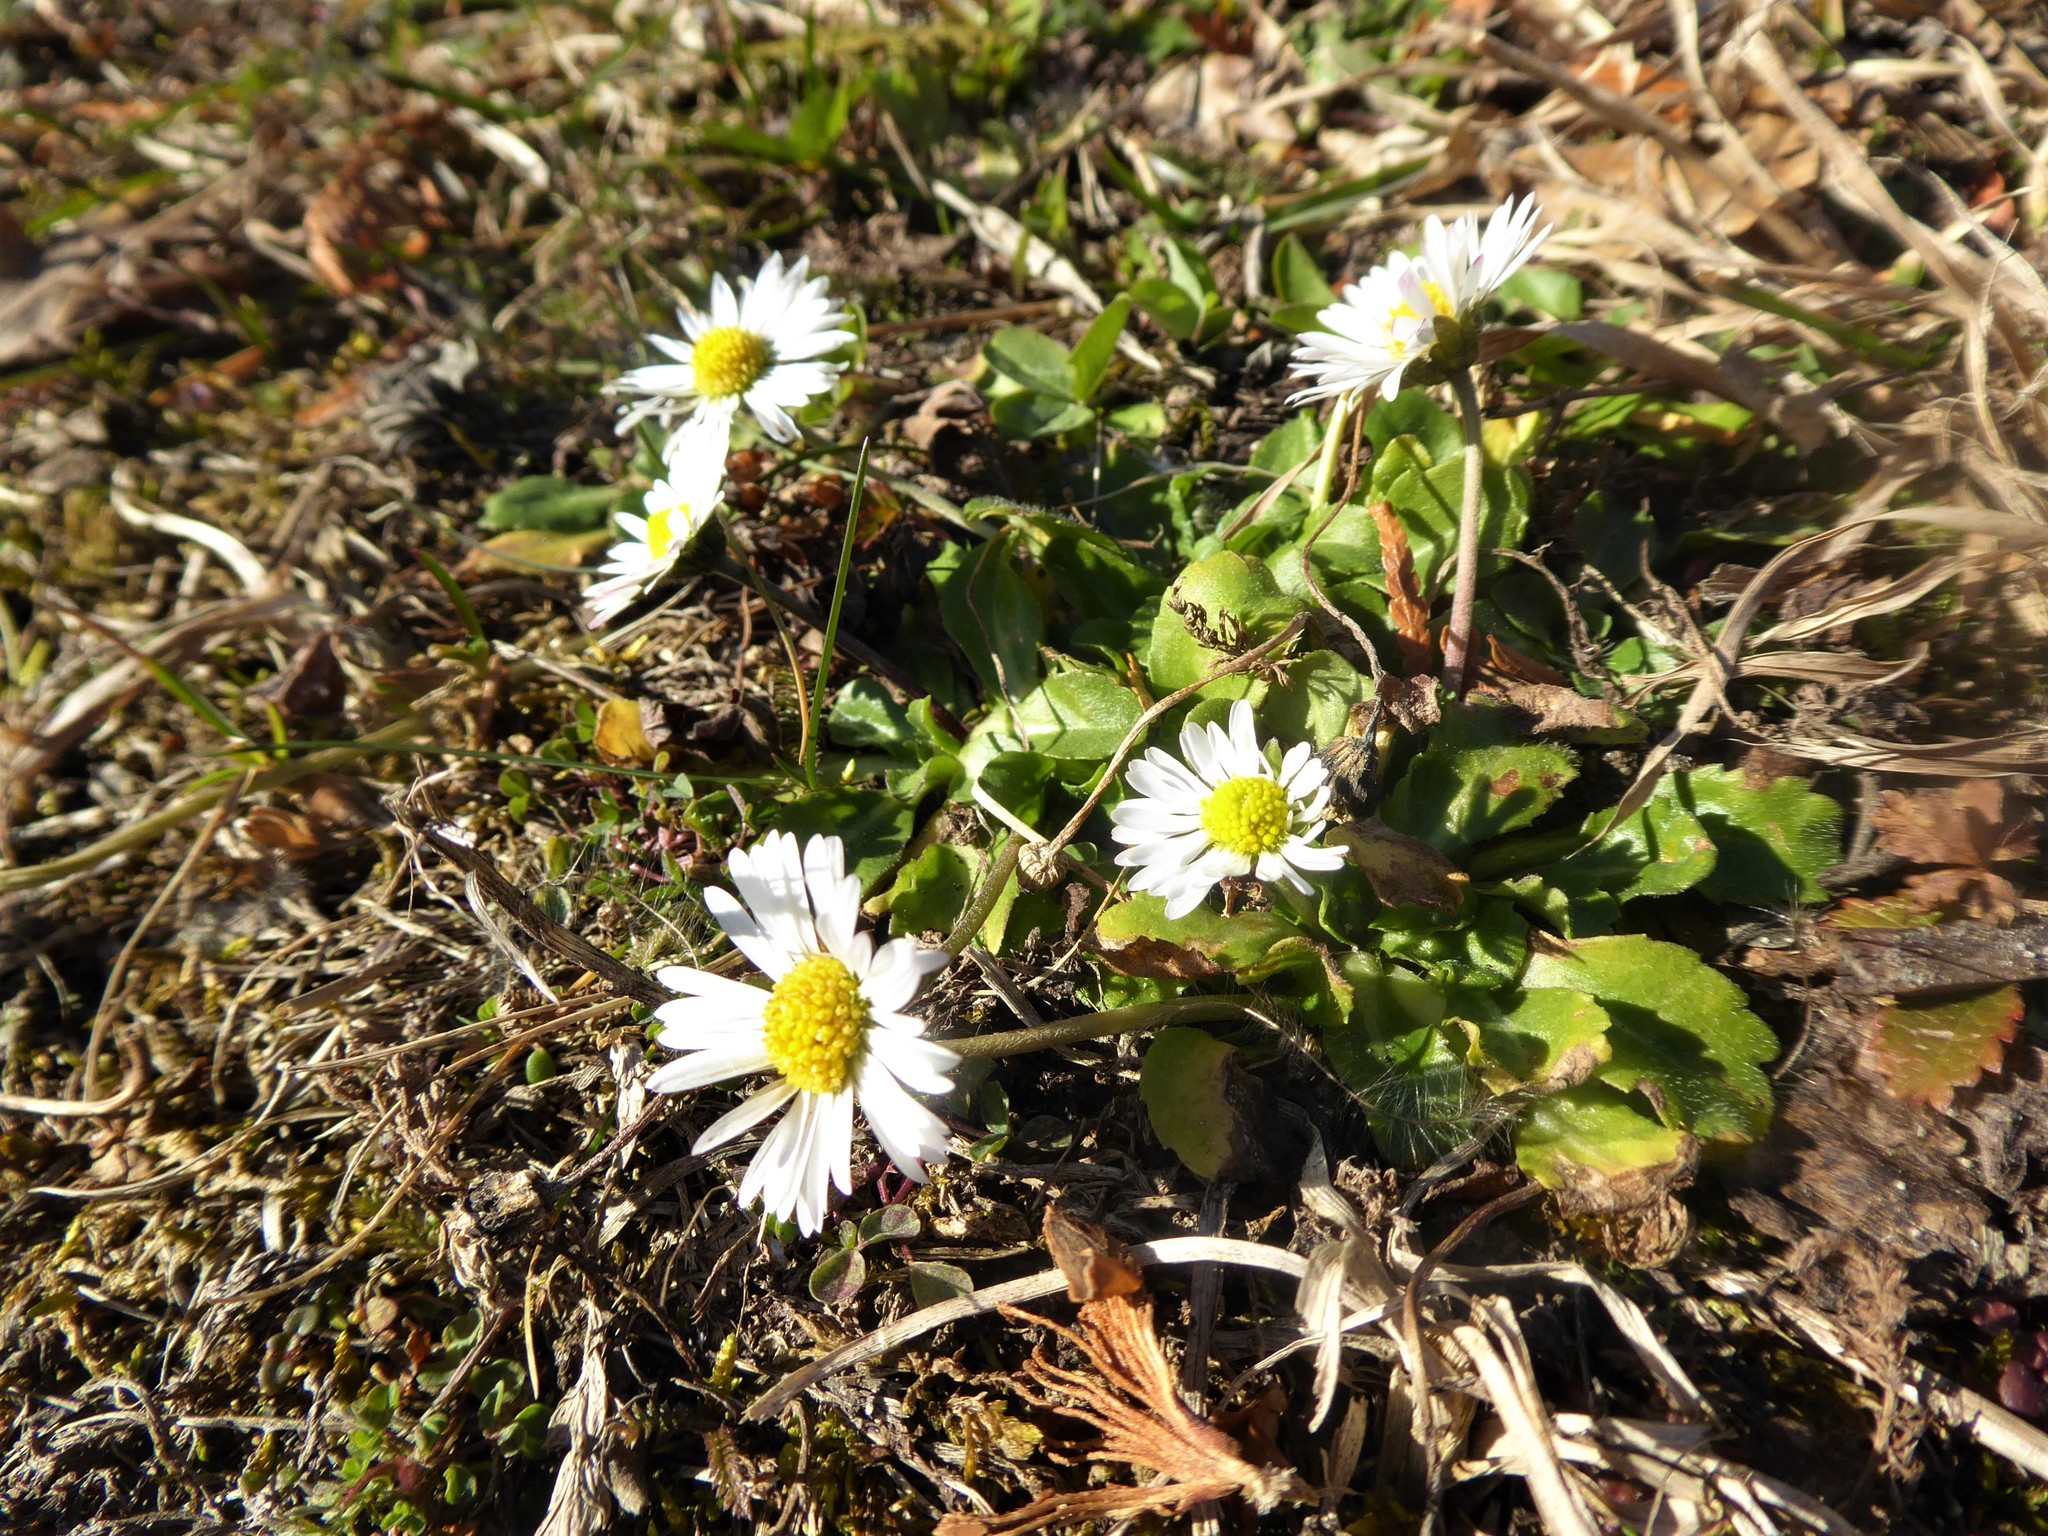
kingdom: Plantae
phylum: Tracheophyta
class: Magnoliopsida
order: Asterales
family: Asteraceae
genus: Bellis
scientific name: Bellis perennis
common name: Lawndaisy
